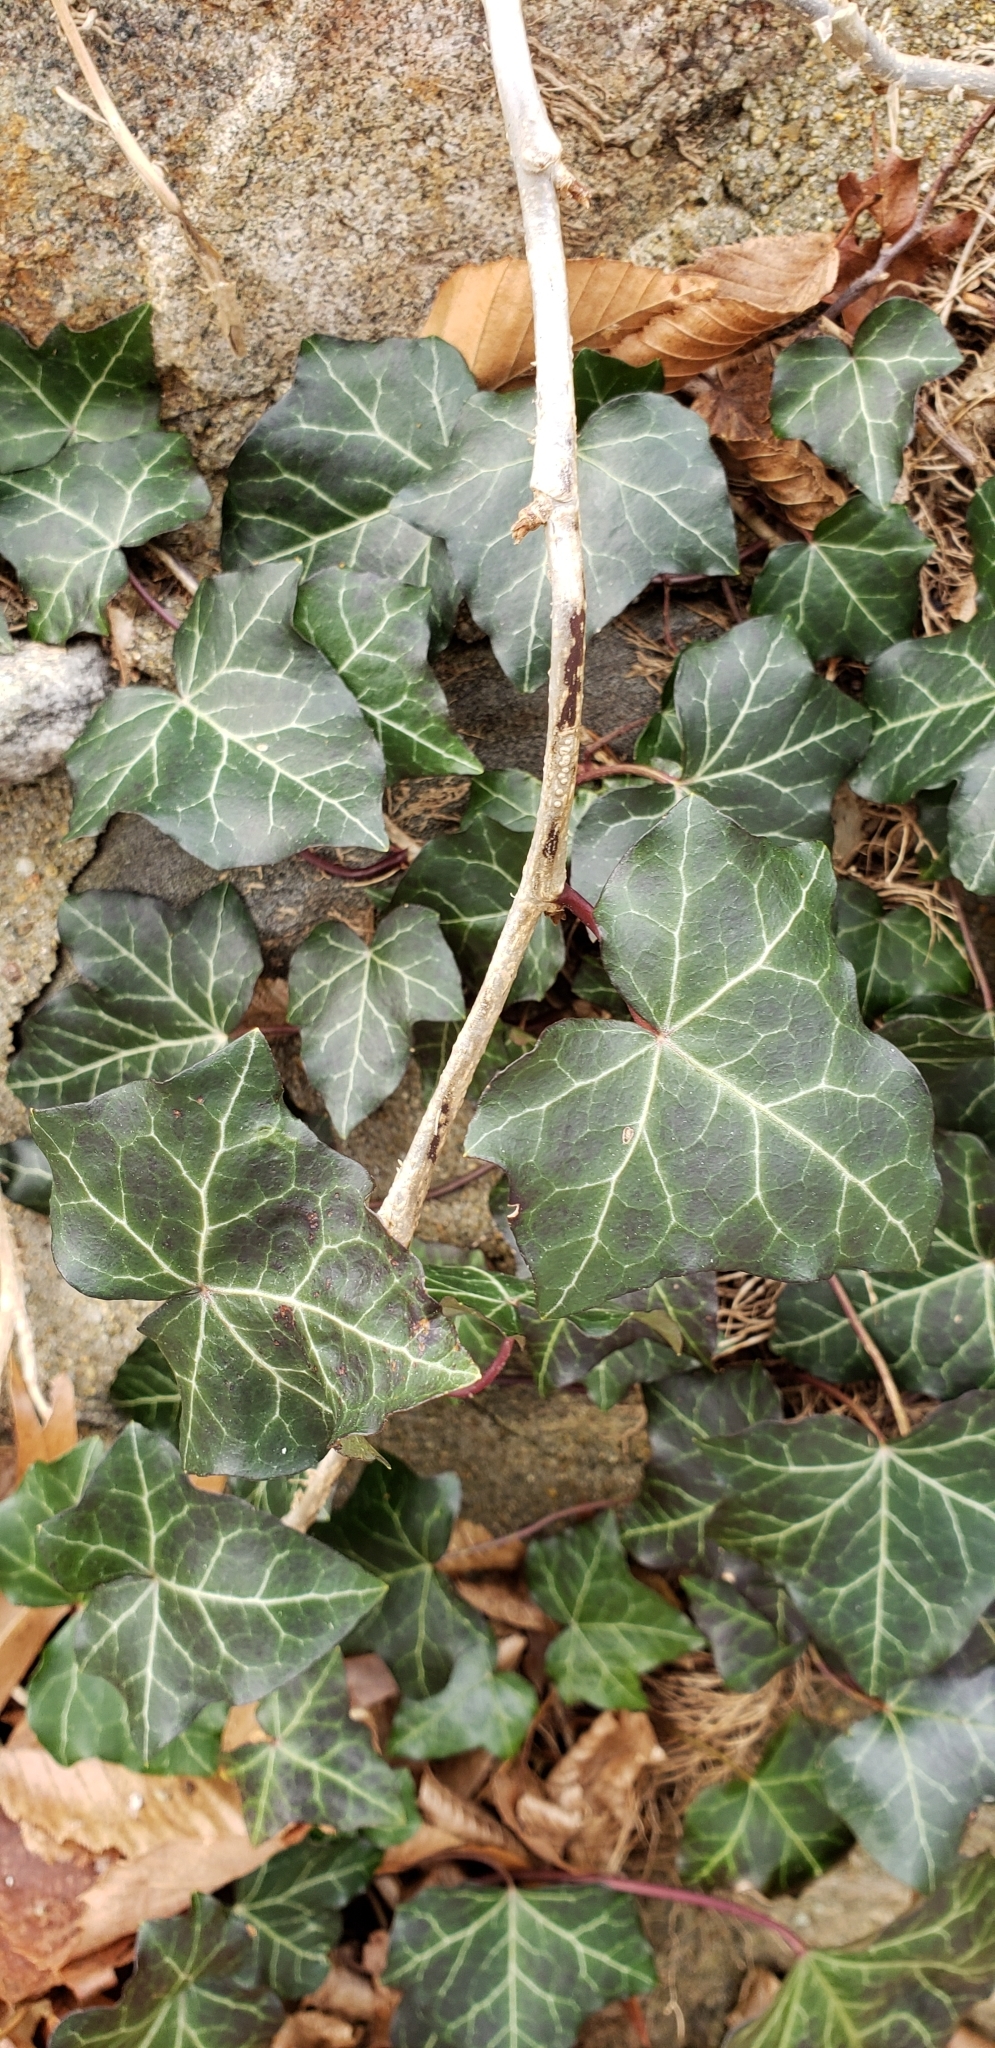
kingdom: Plantae
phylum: Tracheophyta
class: Magnoliopsida
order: Apiales
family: Araliaceae
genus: Hedera
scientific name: Hedera helix
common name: Ivy
